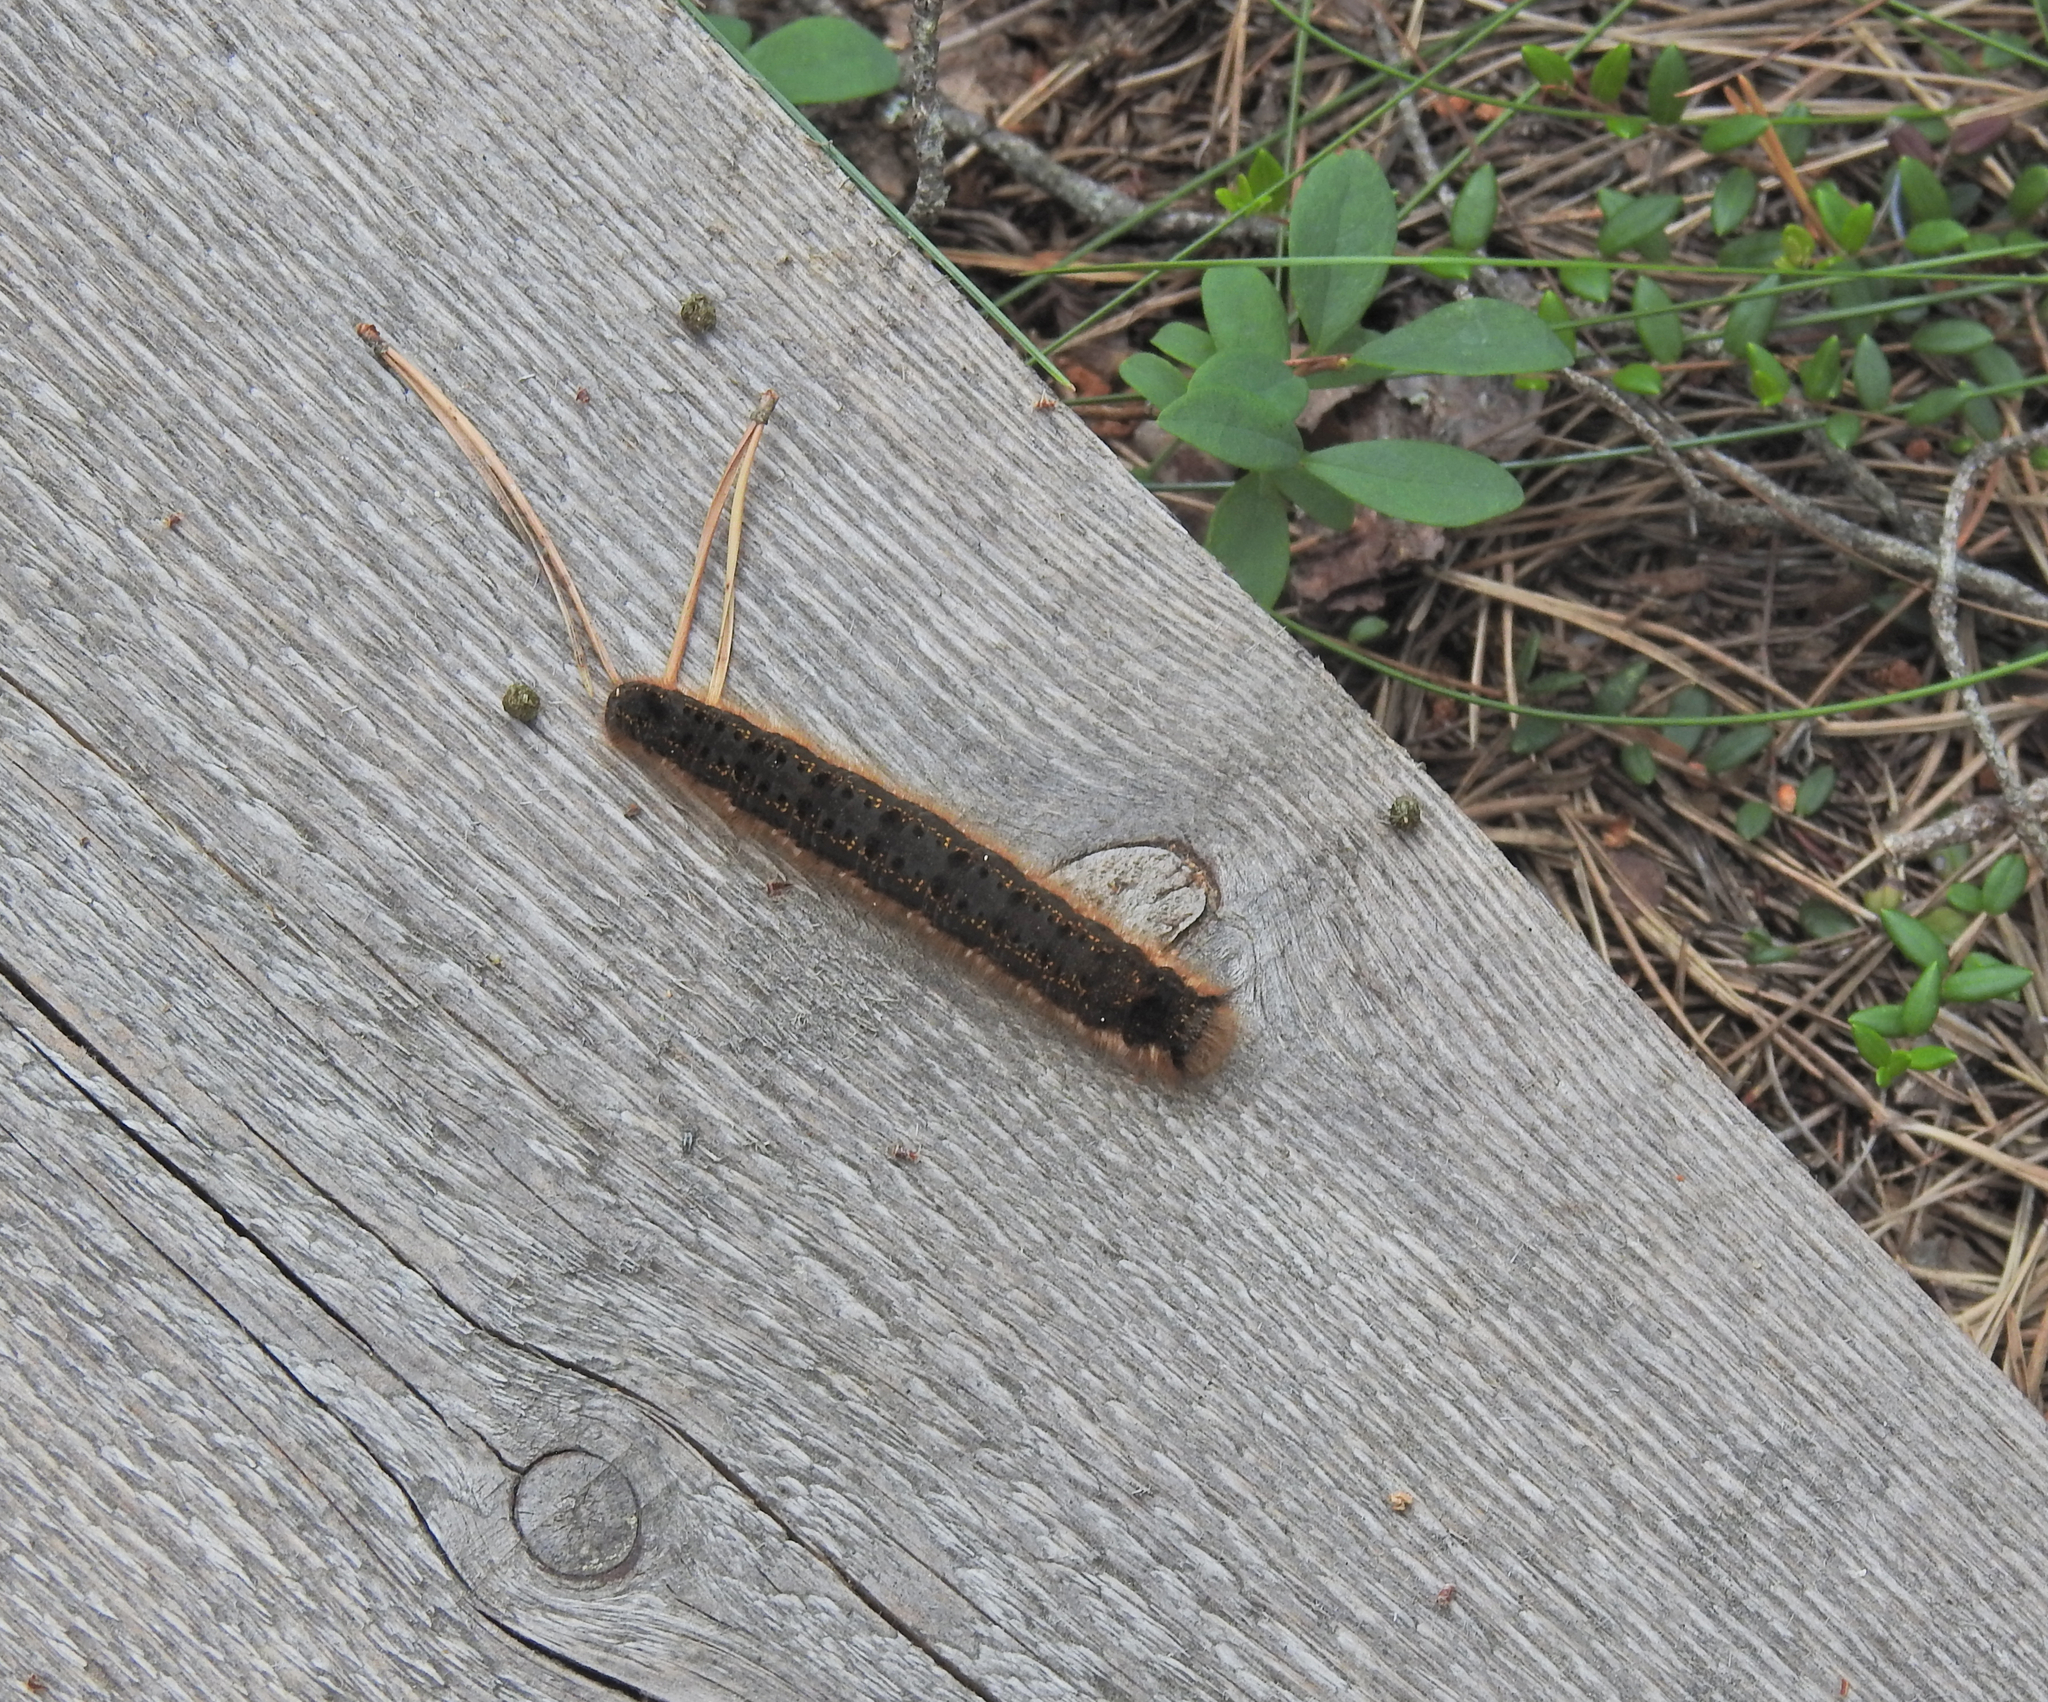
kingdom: Animalia
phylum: Arthropoda
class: Insecta
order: Lepidoptera
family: Lasiocampidae
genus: Euthrix
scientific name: Euthrix potatoria
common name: Drinker
